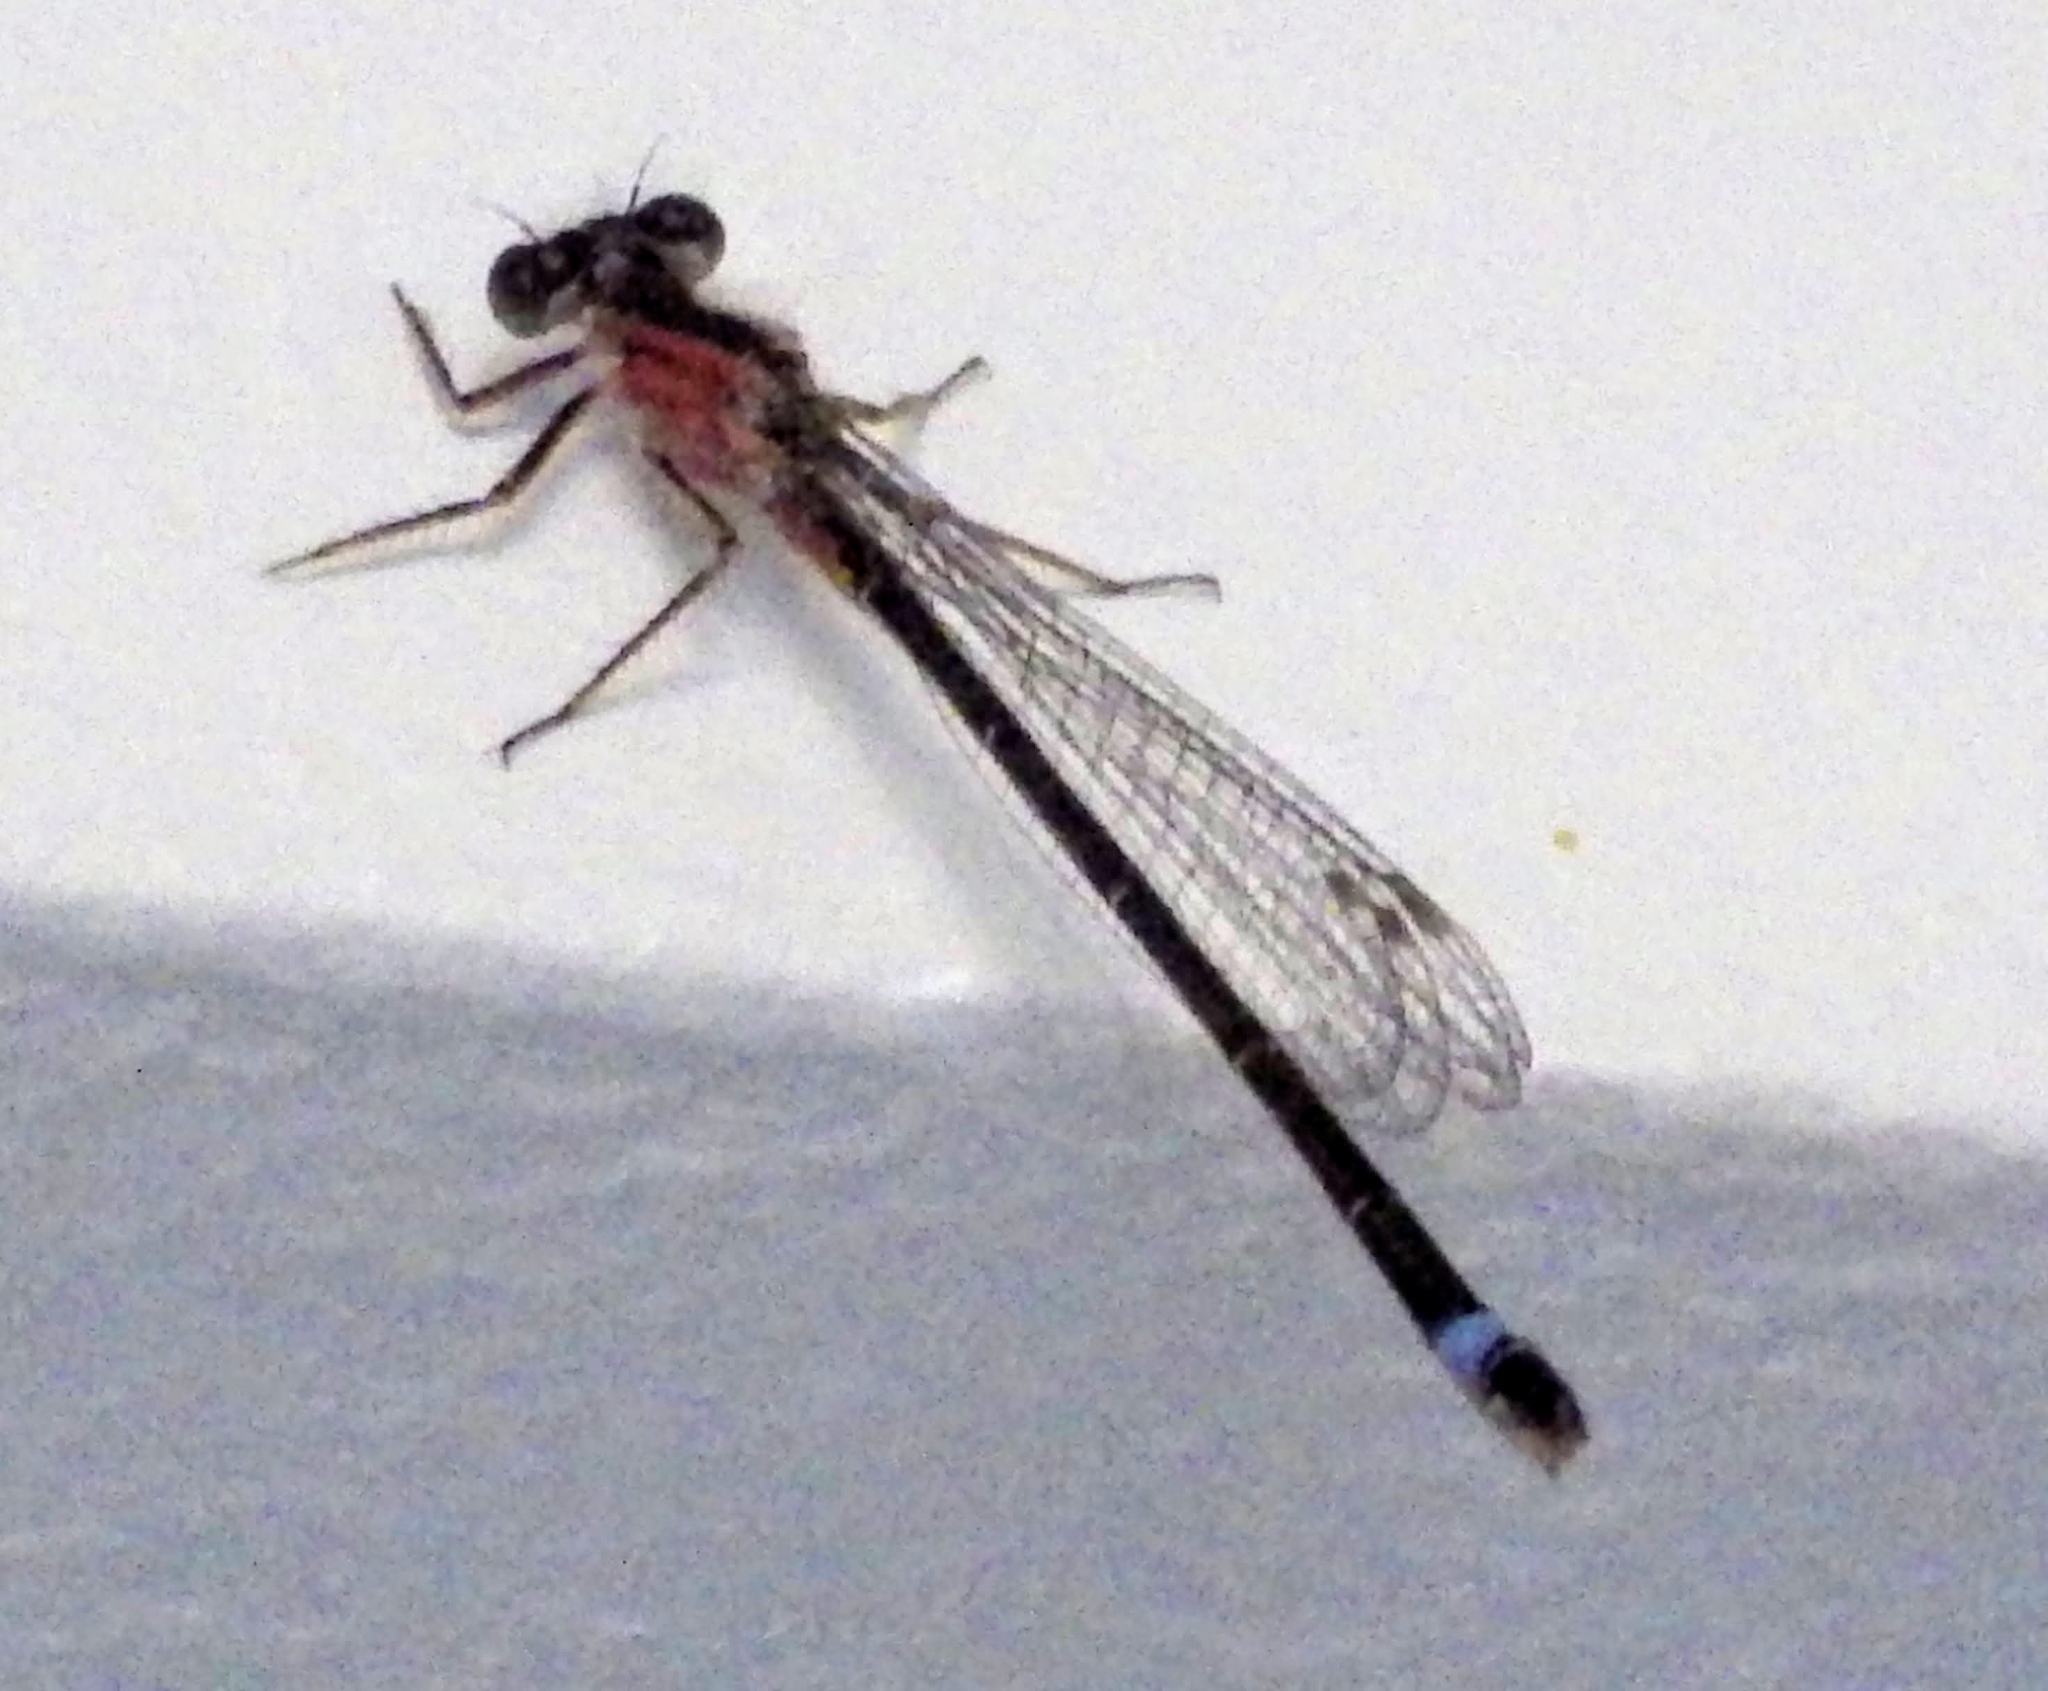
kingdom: Animalia
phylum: Arthropoda
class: Insecta
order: Odonata
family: Coenagrionidae
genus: Ischnura
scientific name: Ischnura elegans
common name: Blue-tailed damselfly
